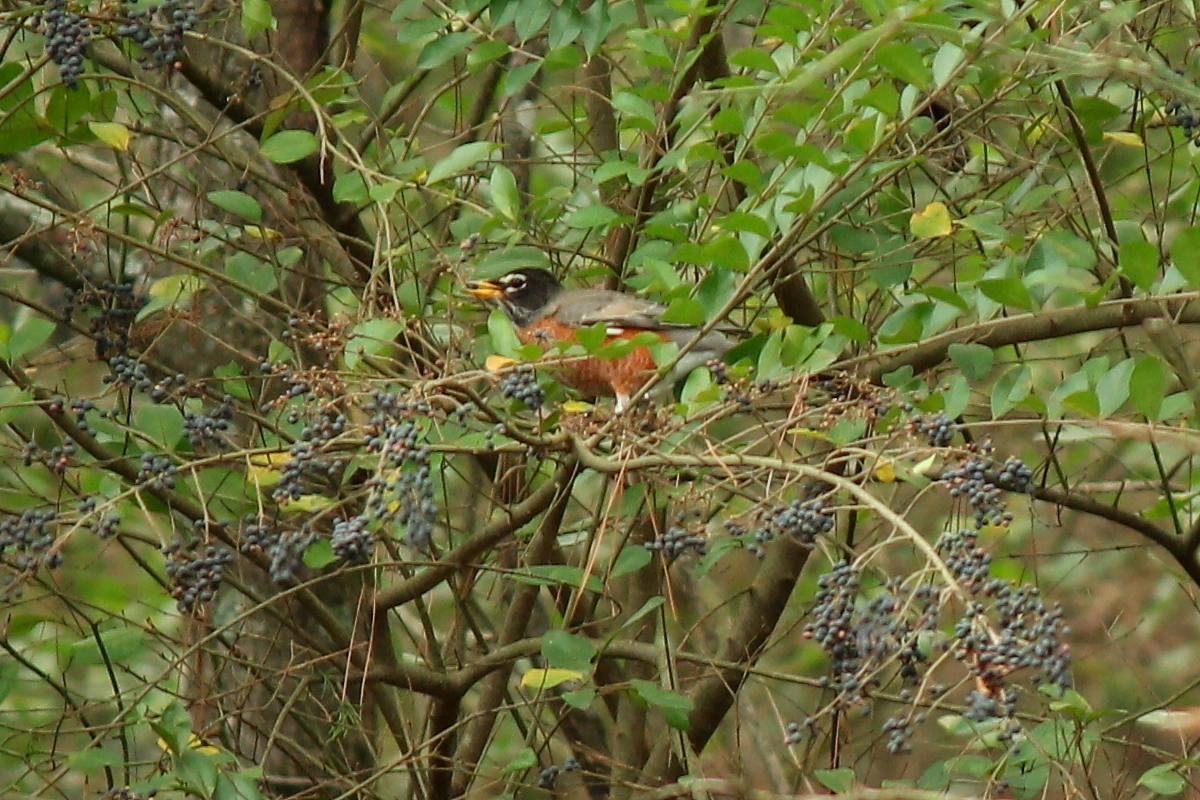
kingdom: Animalia
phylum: Chordata
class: Aves
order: Passeriformes
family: Turdidae
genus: Turdus
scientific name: Turdus migratorius
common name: American robin
